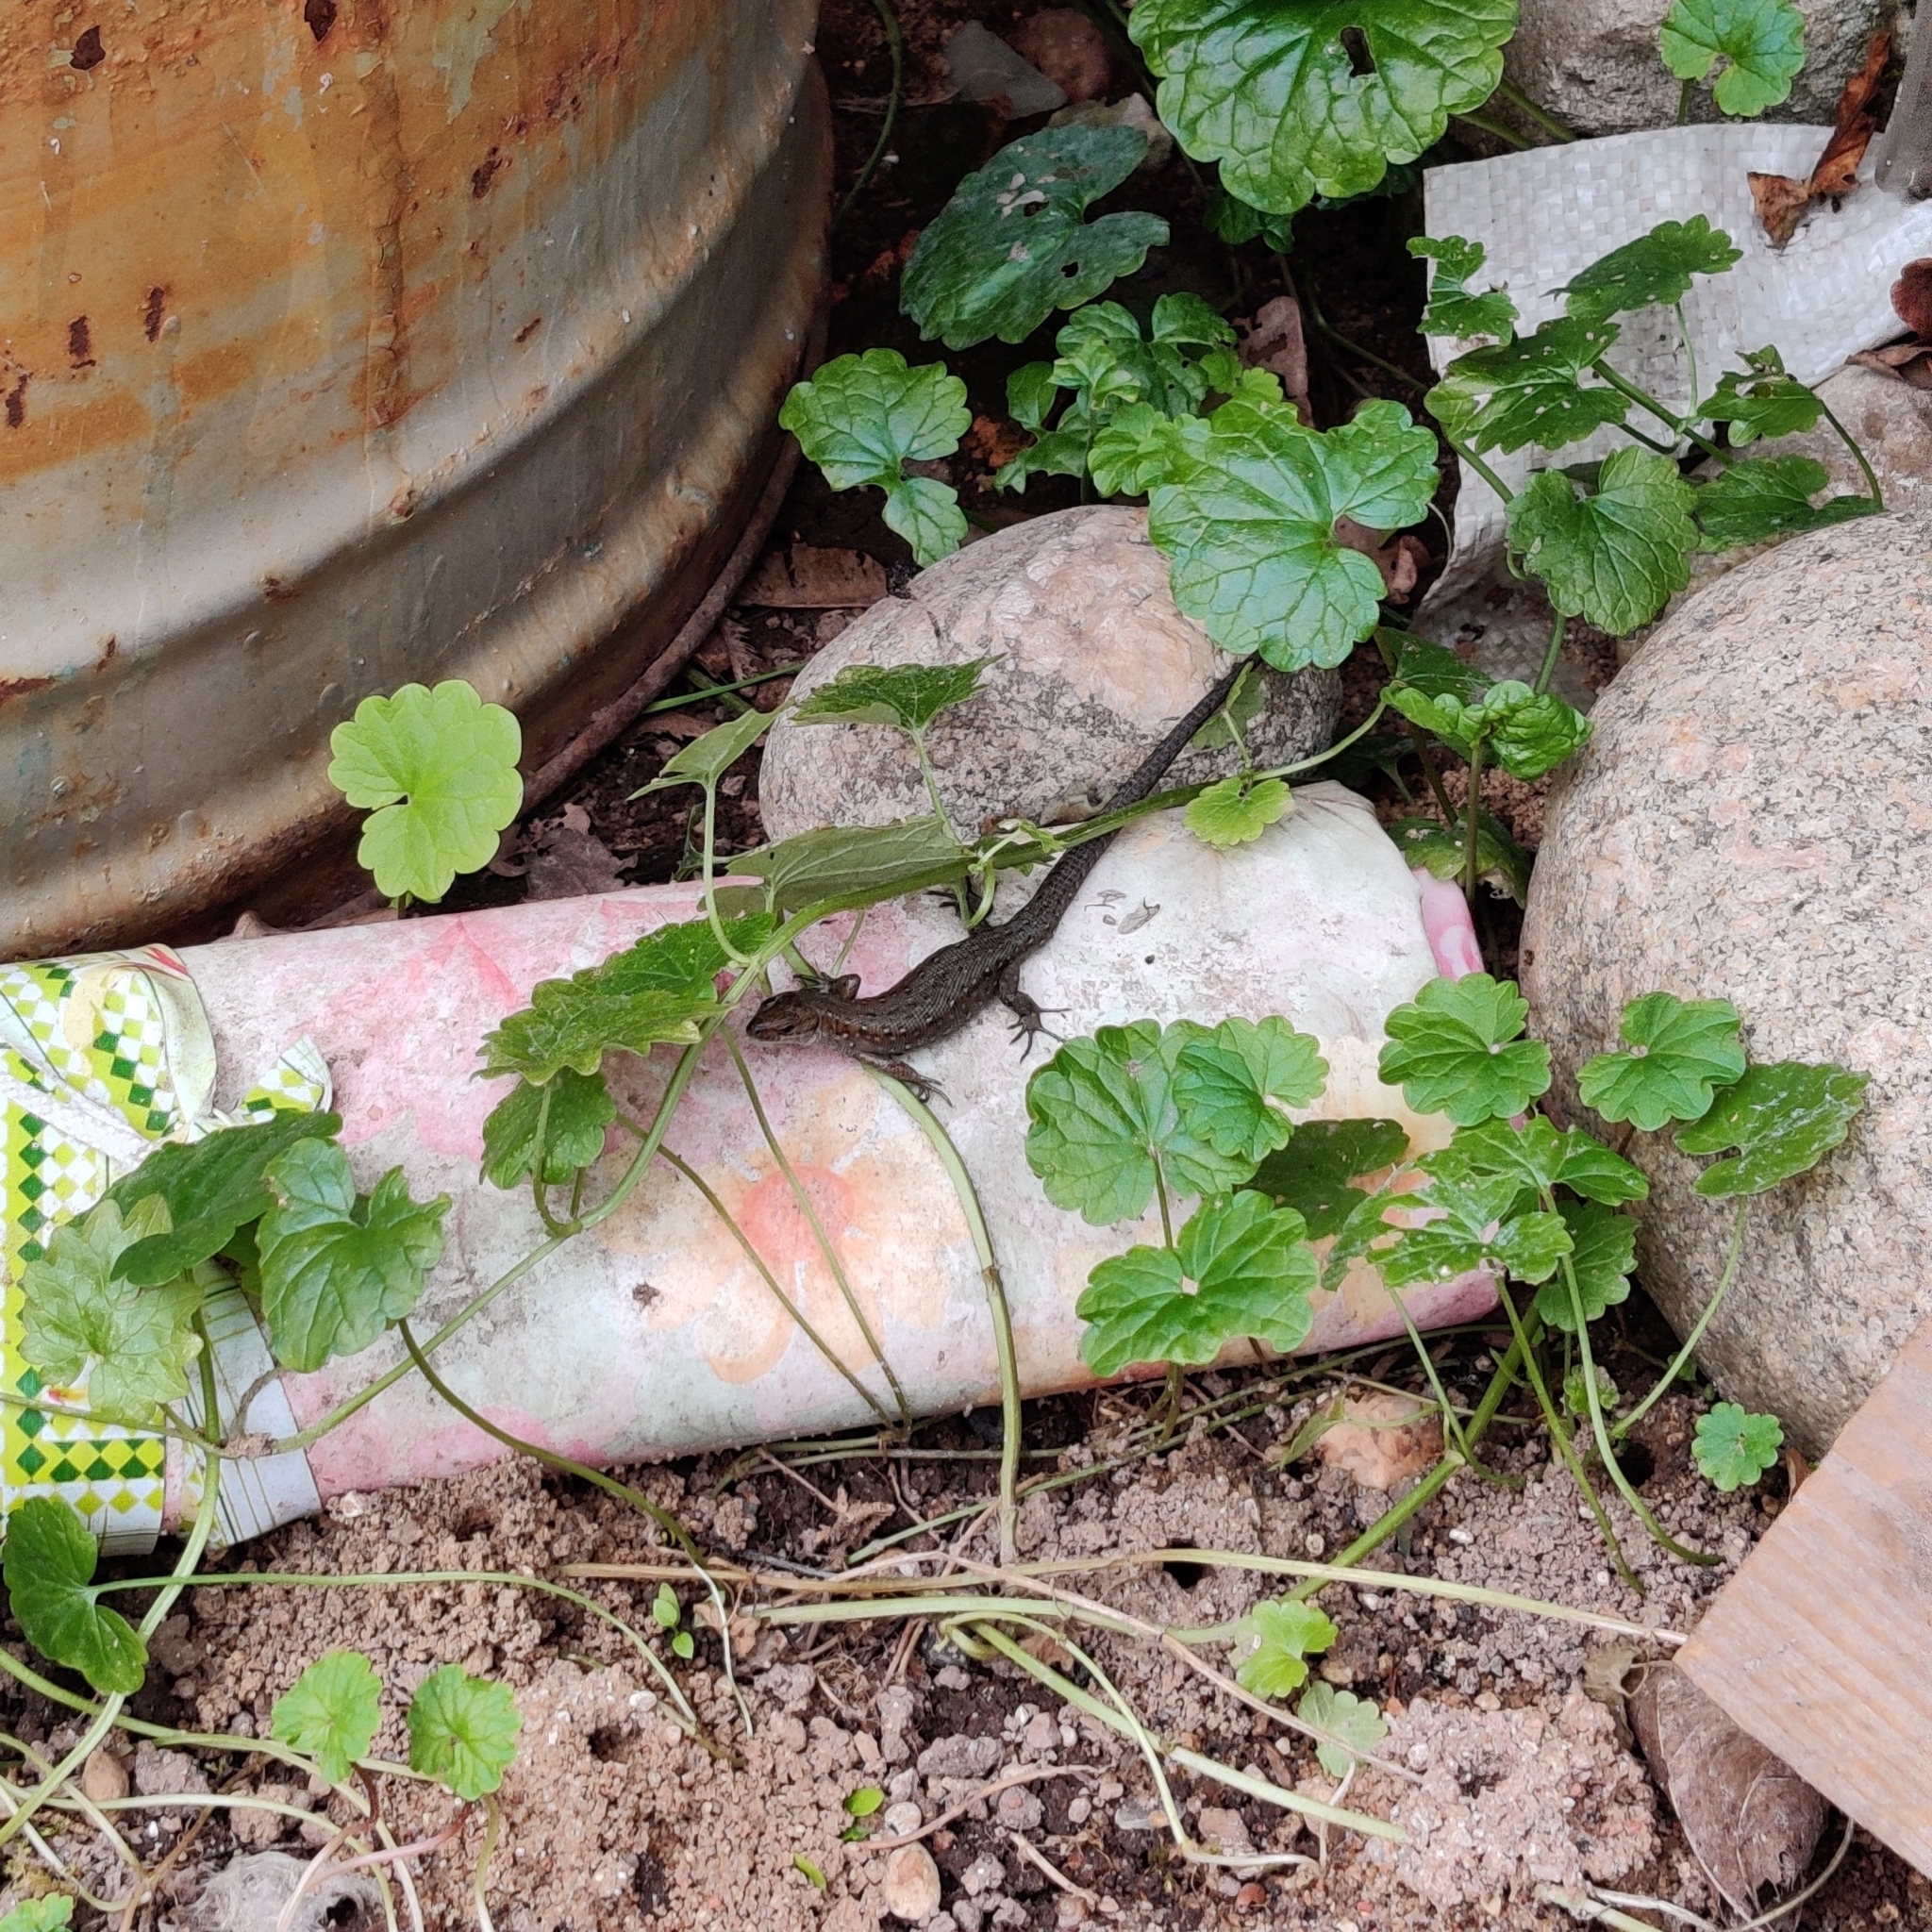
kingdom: Animalia
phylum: Chordata
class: Squamata
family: Lacertidae
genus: Zootoca
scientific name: Zootoca vivipara
